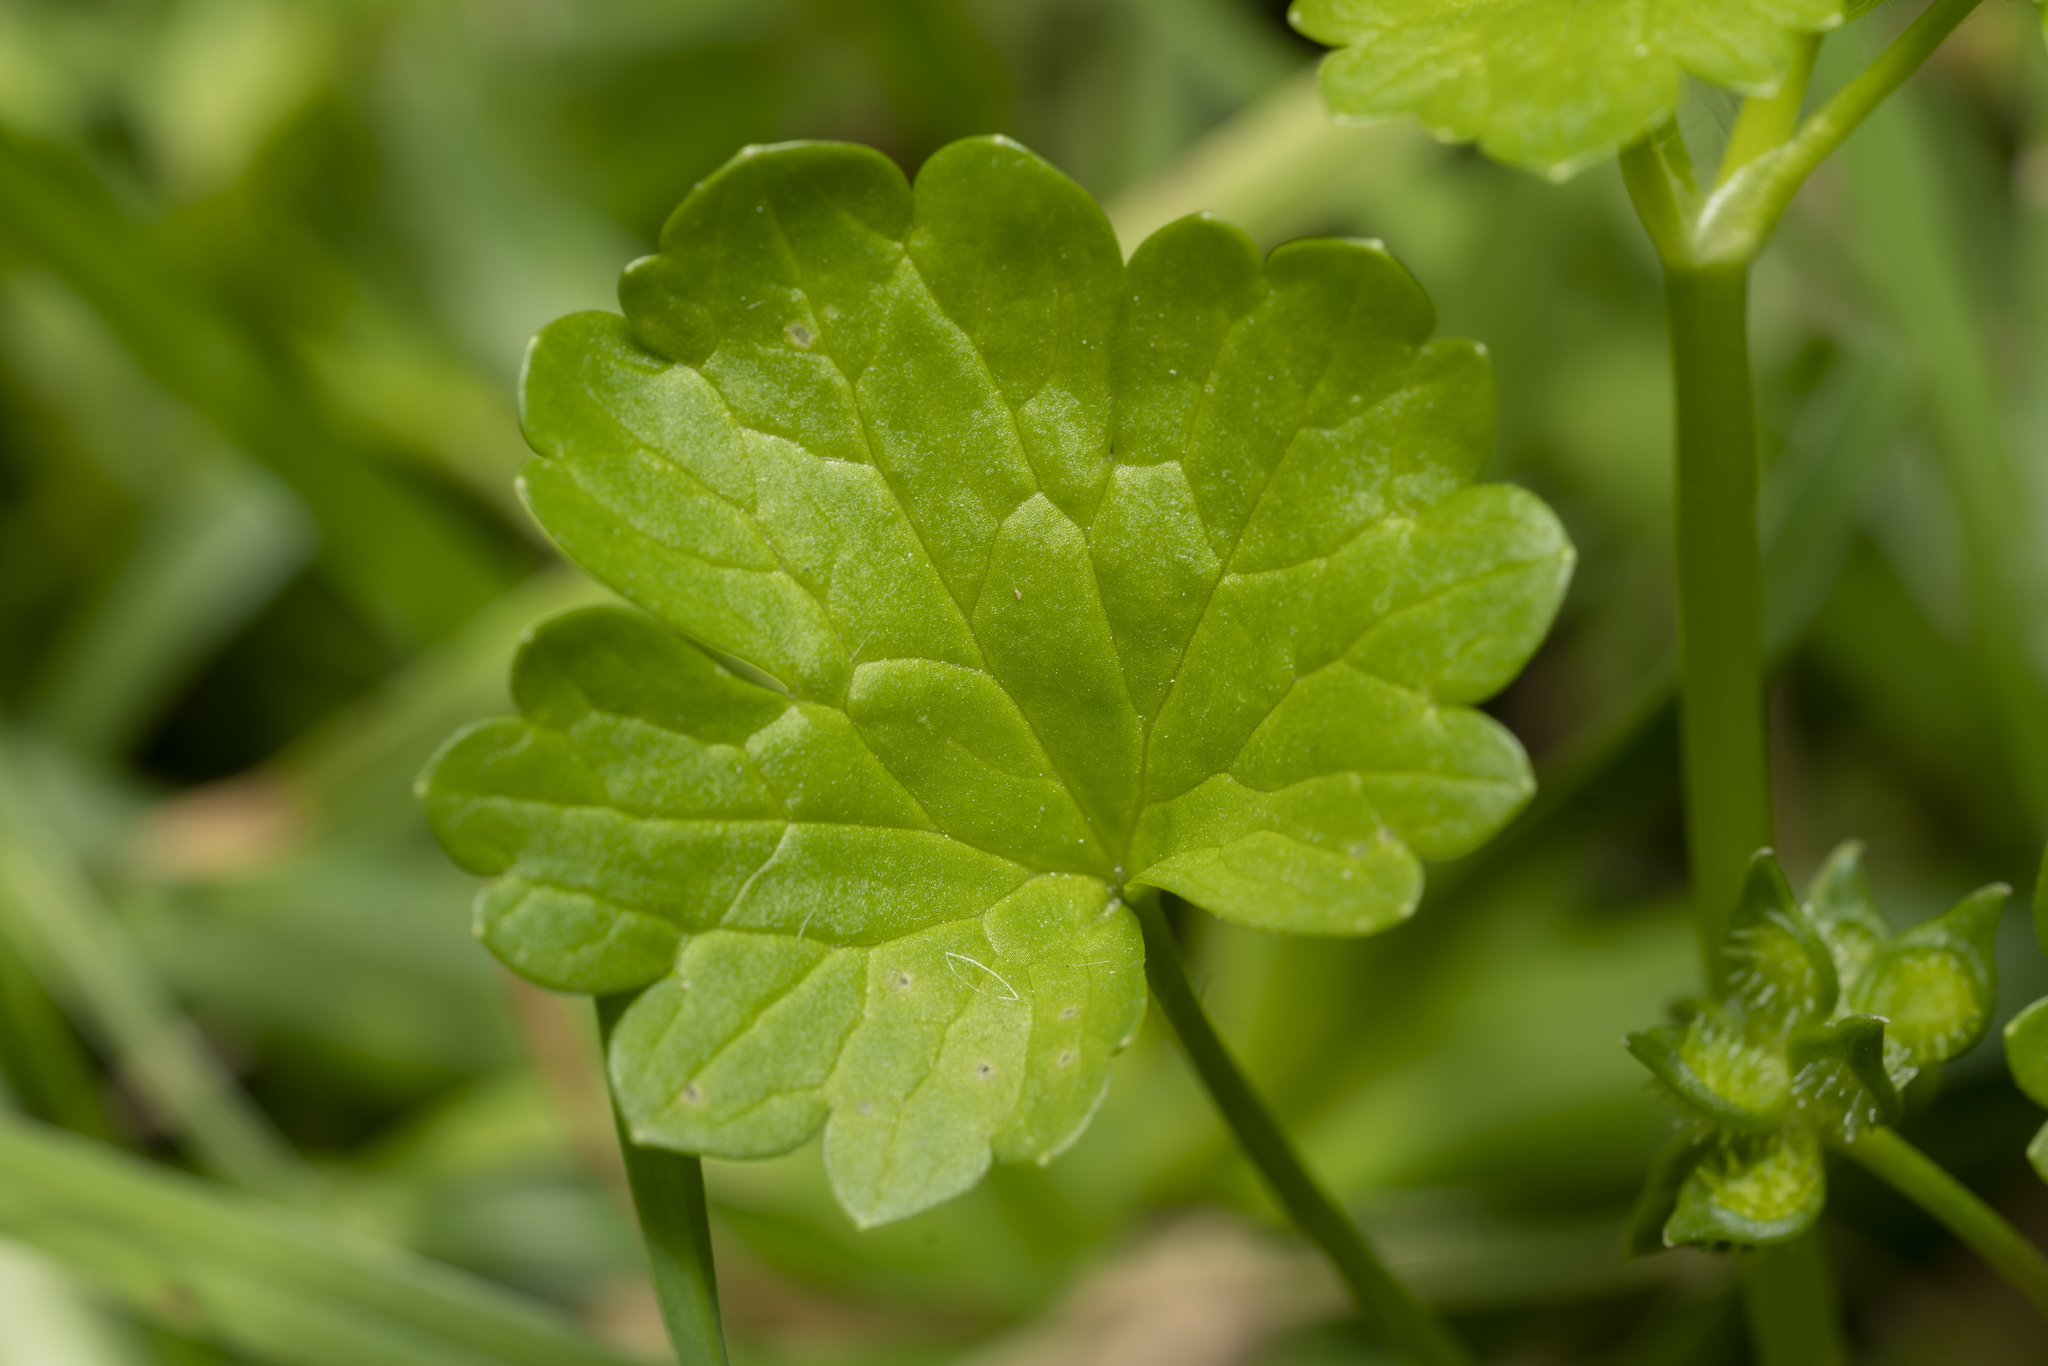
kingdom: Plantae
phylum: Tracheophyta
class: Magnoliopsida
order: Ranunculales
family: Ranunculaceae
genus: Ranunculus
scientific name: Ranunculus muricatus
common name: Rough-fruited buttercup
